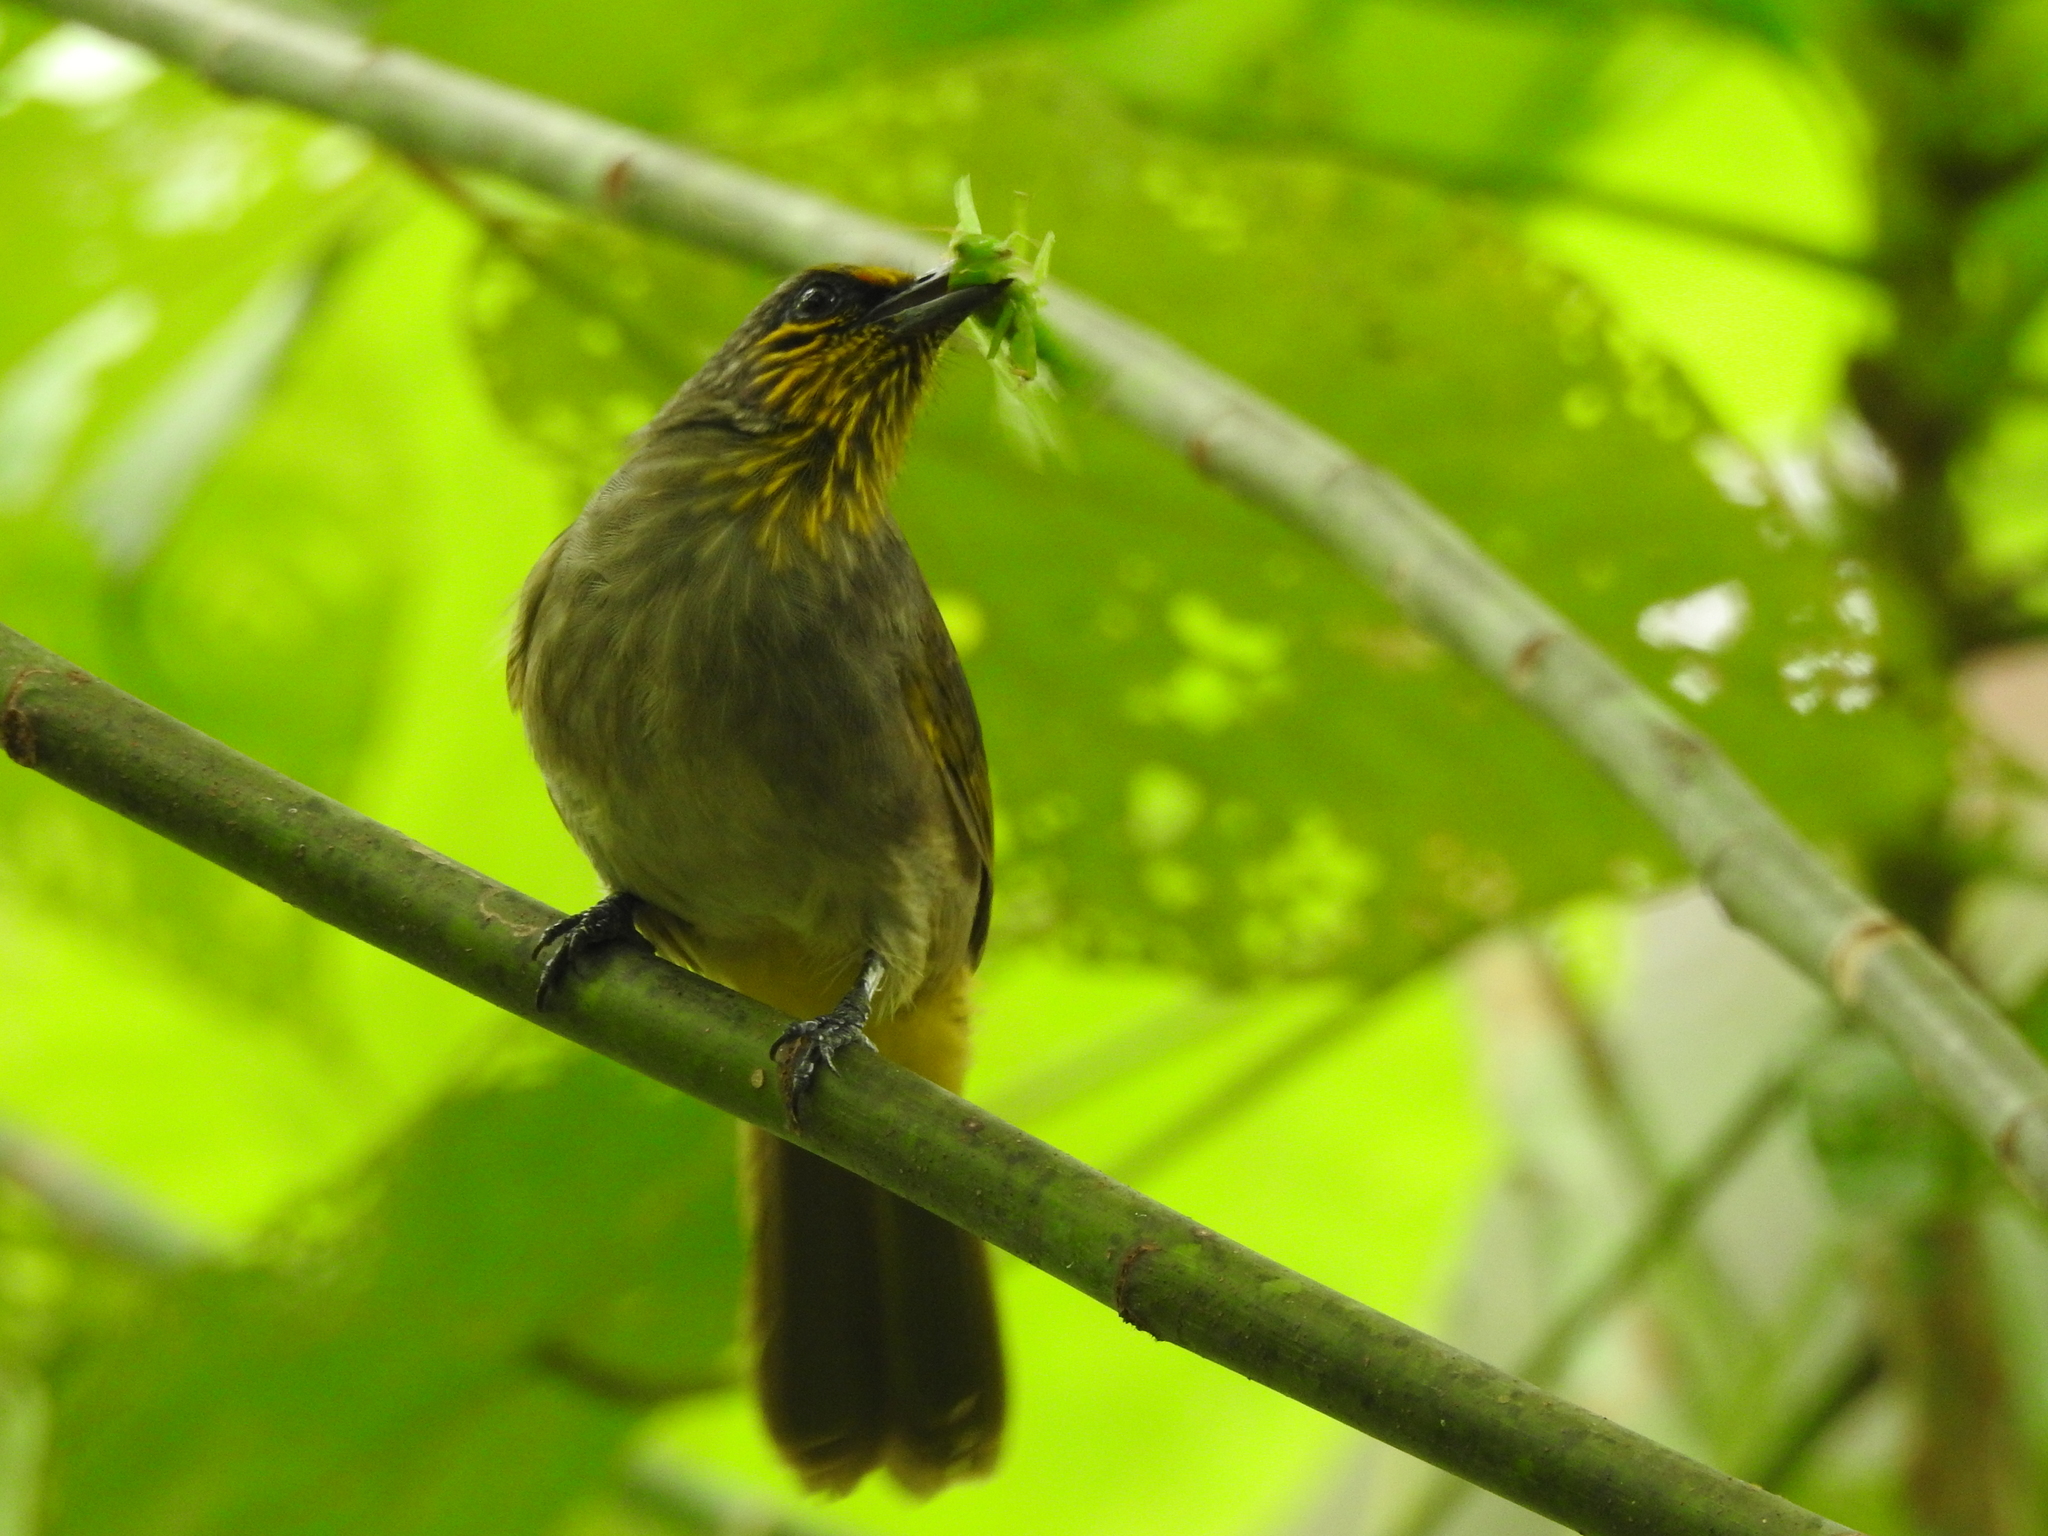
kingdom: Animalia
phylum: Chordata
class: Aves
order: Passeriformes
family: Pycnonotidae
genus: Pycnonotus
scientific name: Pycnonotus finlaysoni
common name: Stripe-throated bulbul
